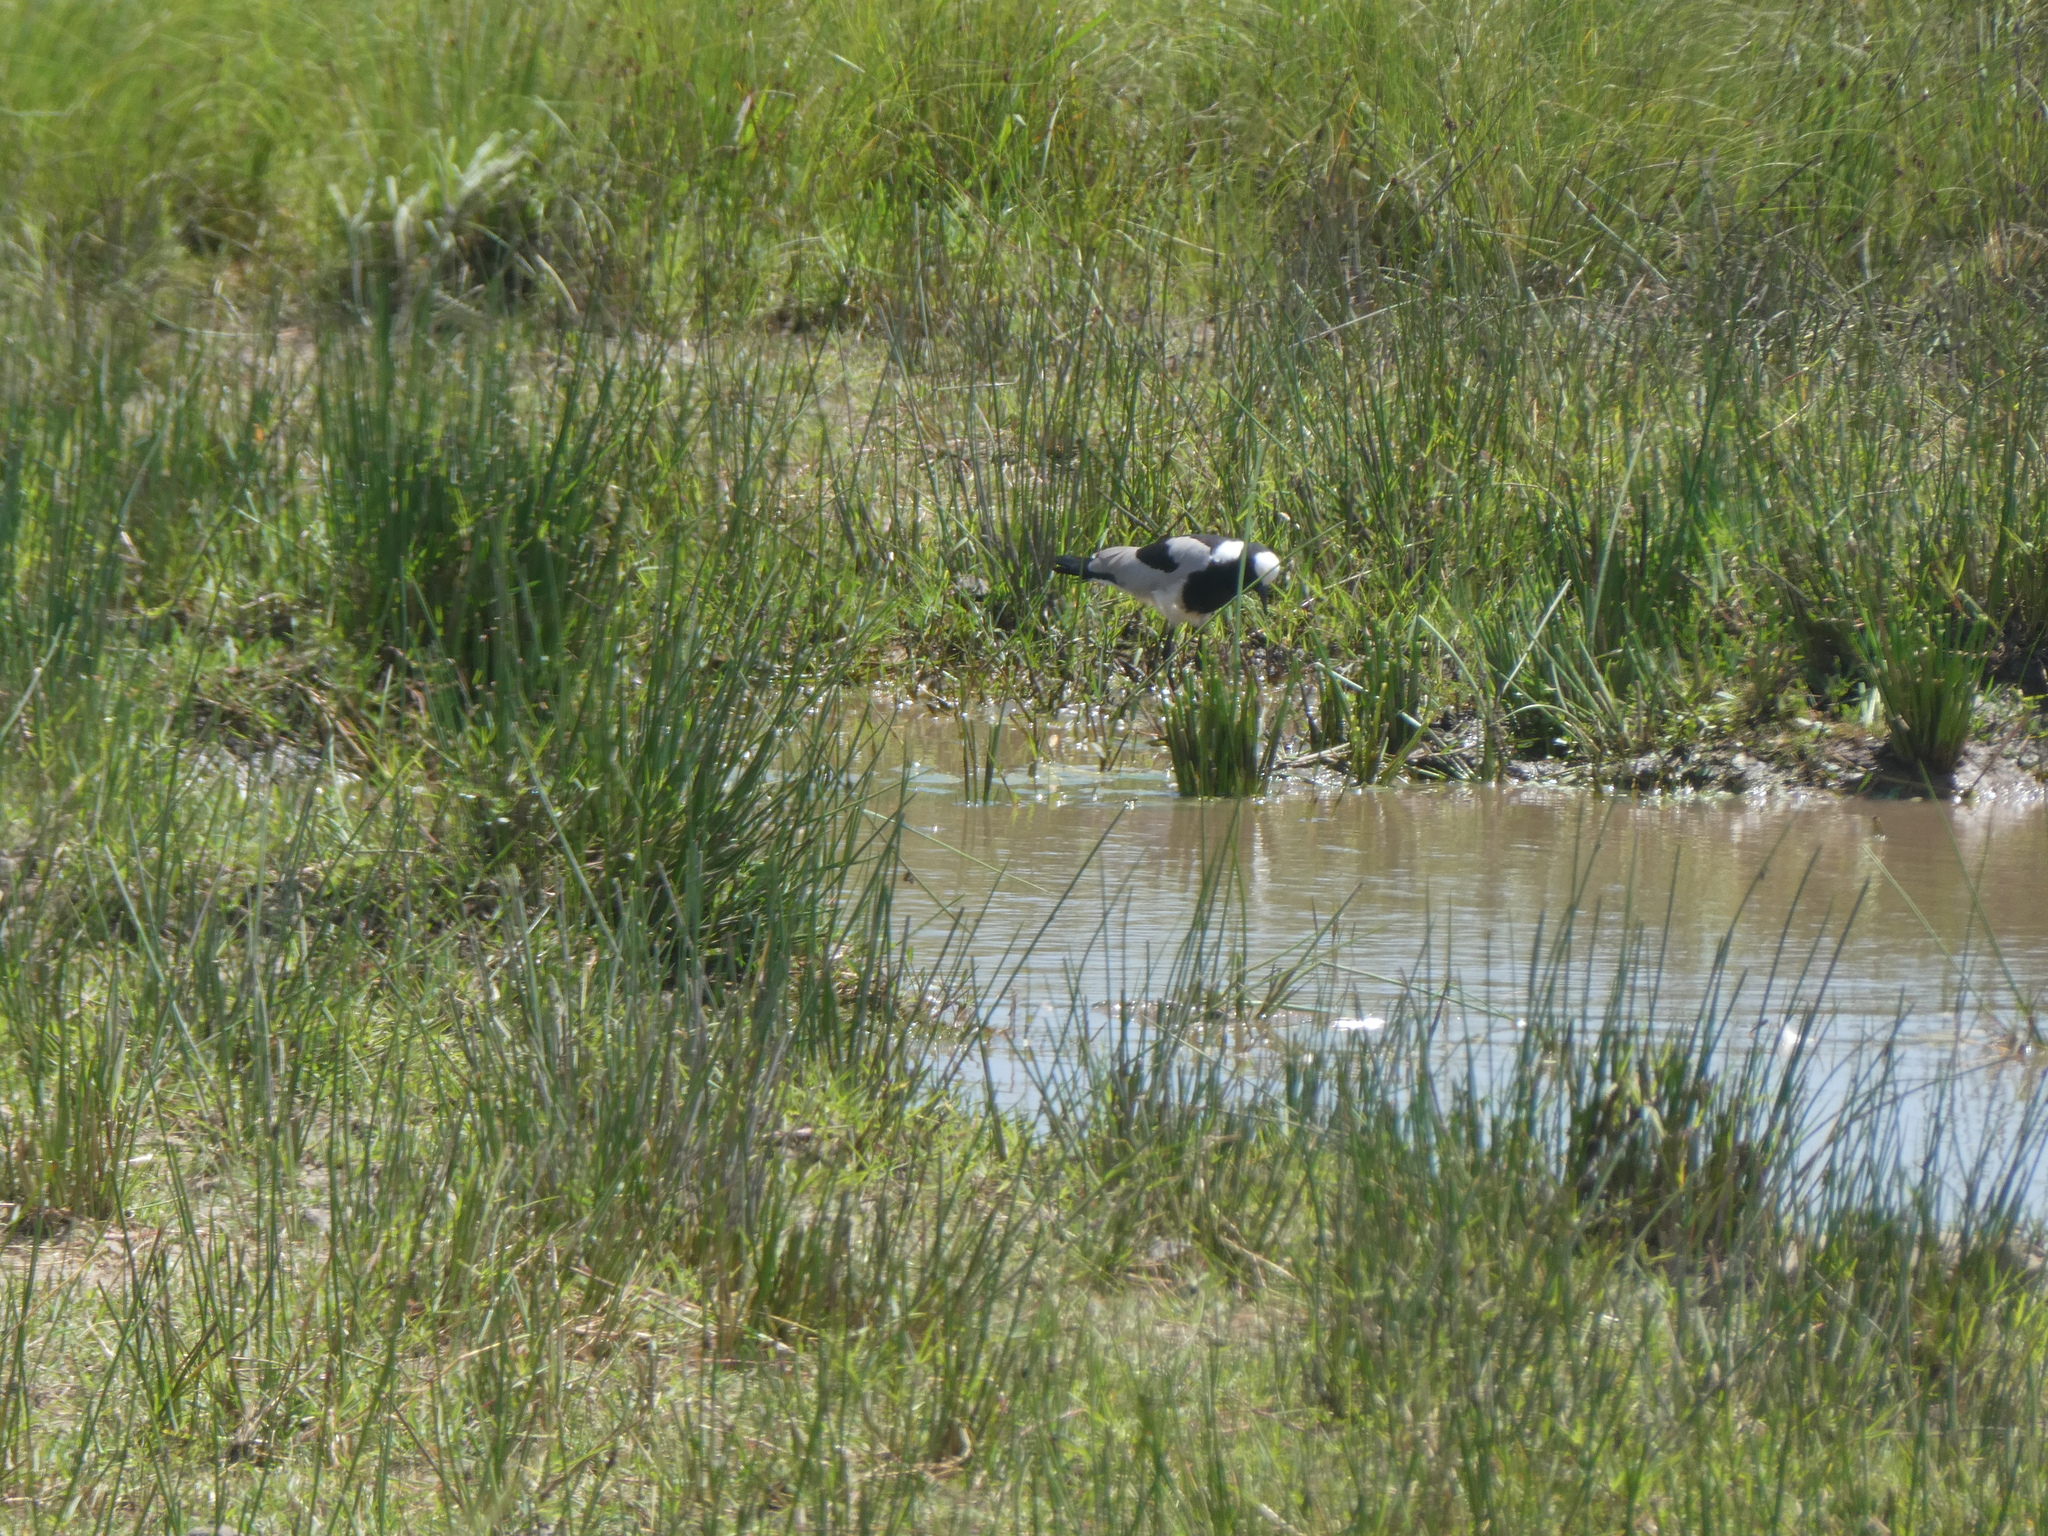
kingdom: Animalia
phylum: Chordata
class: Aves
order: Charadriiformes
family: Charadriidae
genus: Vanellus
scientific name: Vanellus armatus
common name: Blacksmith lapwing
